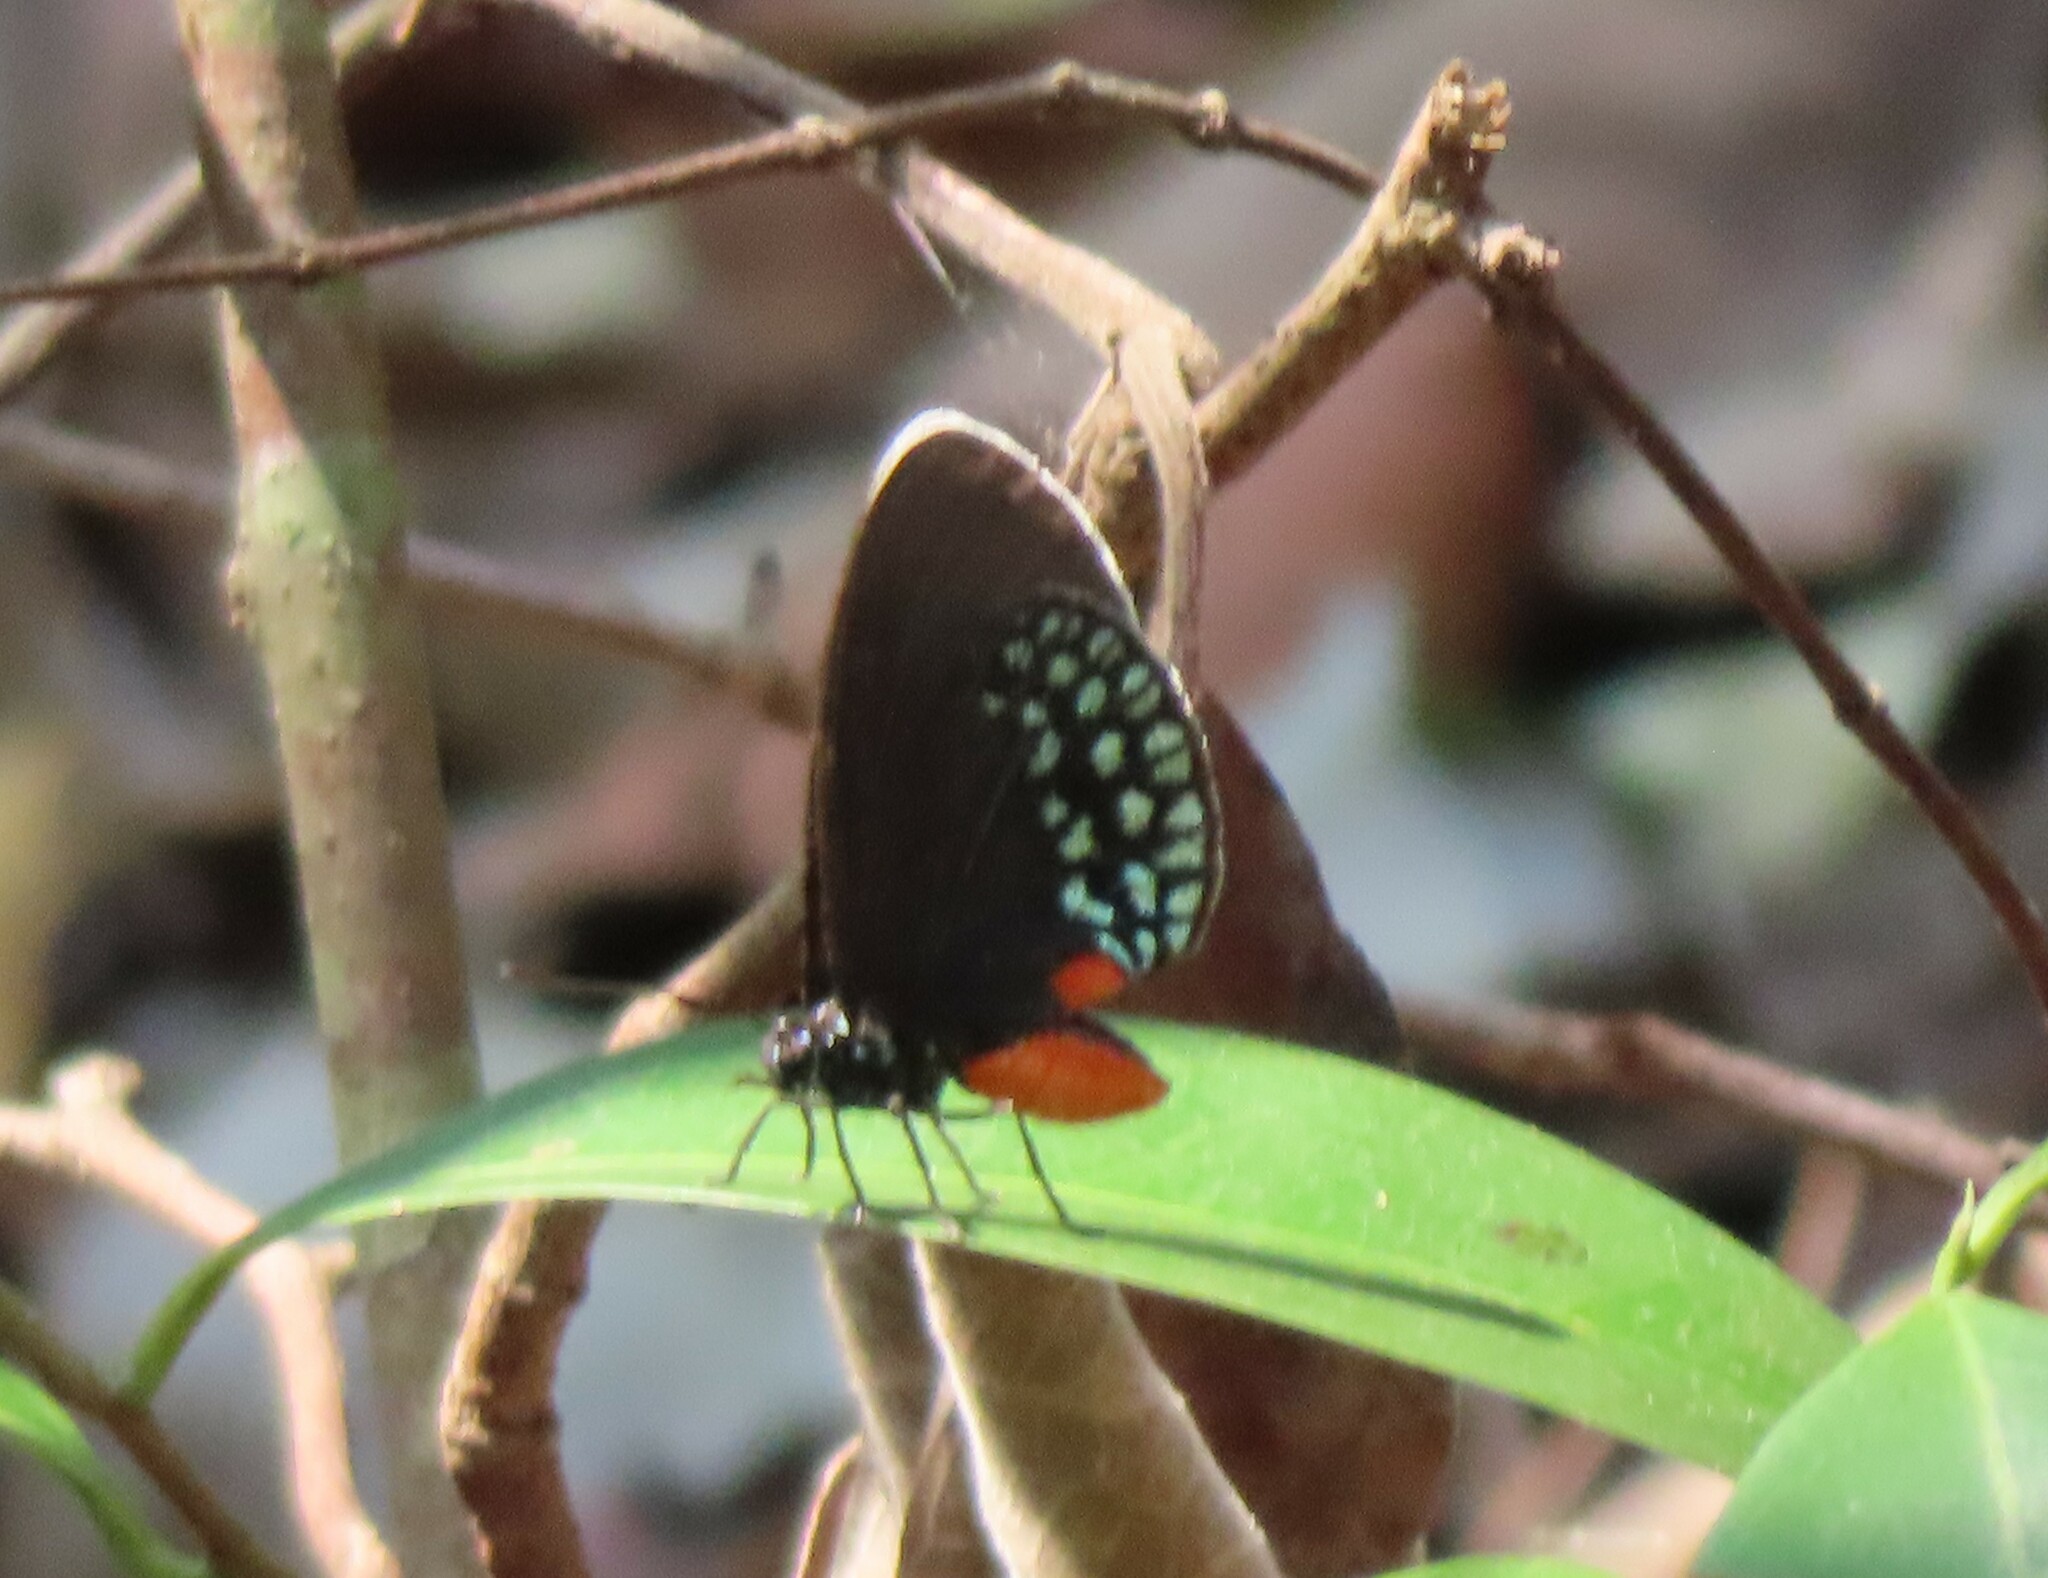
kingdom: Animalia
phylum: Arthropoda
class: Insecta
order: Lepidoptera
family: Lycaenidae
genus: Eumaeus
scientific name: Eumaeus toxea
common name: Mexican cycadian
